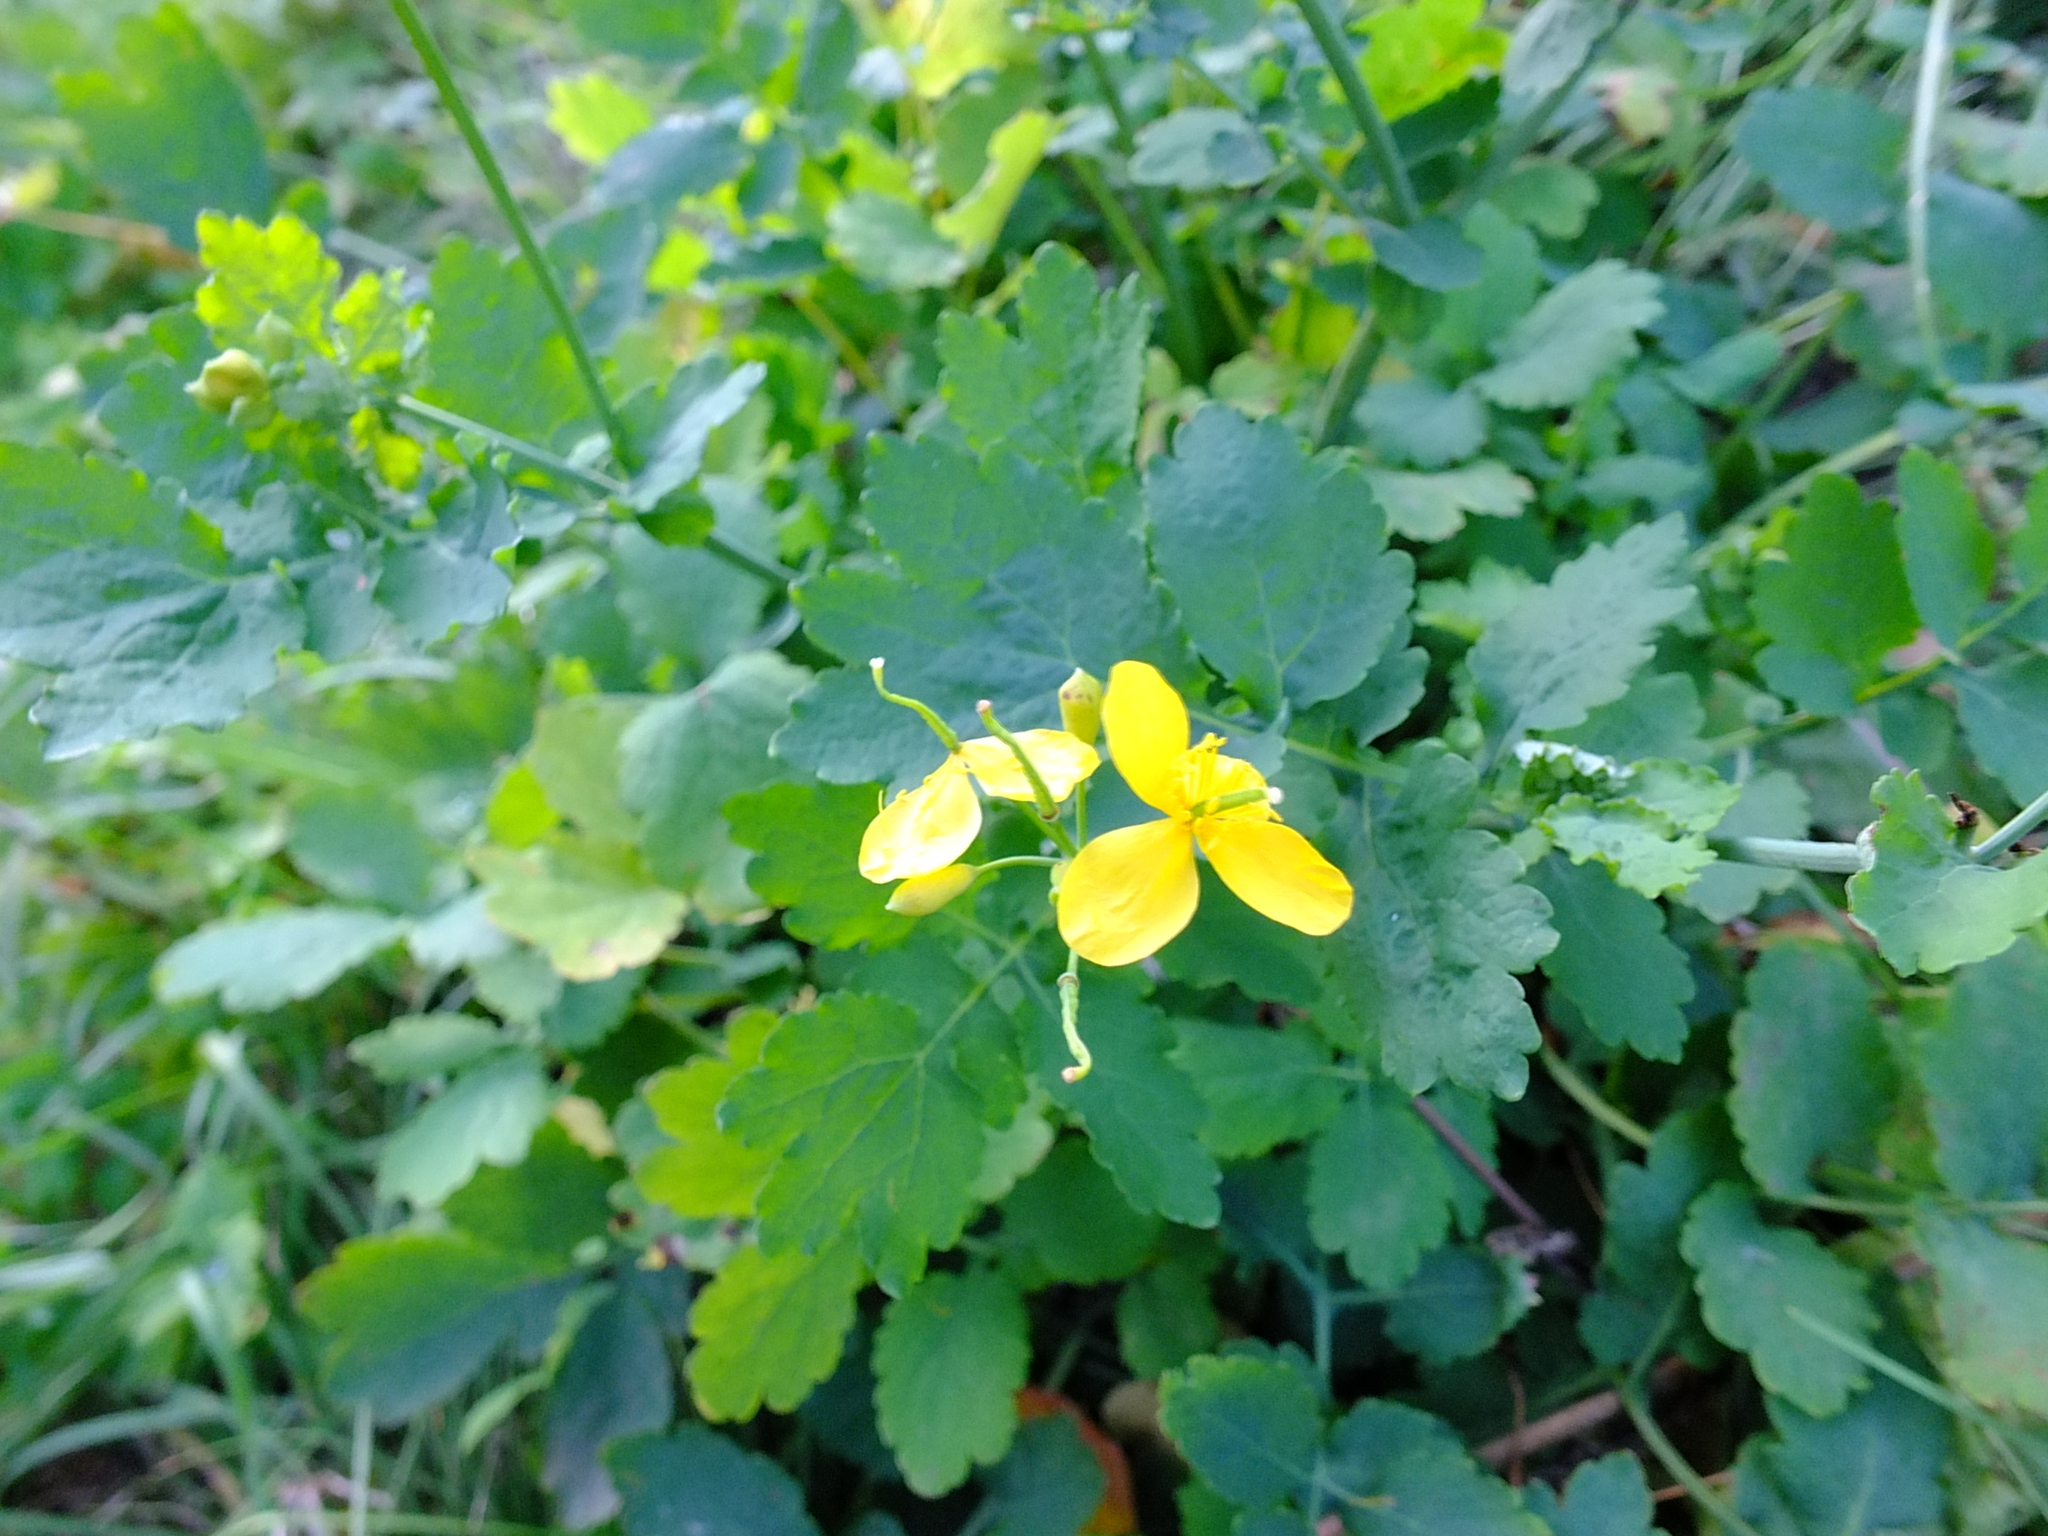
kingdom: Plantae
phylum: Tracheophyta
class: Magnoliopsida
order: Ranunculales
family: Papaveraceae
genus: Chelidonium
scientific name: Chelidonium majus
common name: Greater celandine
